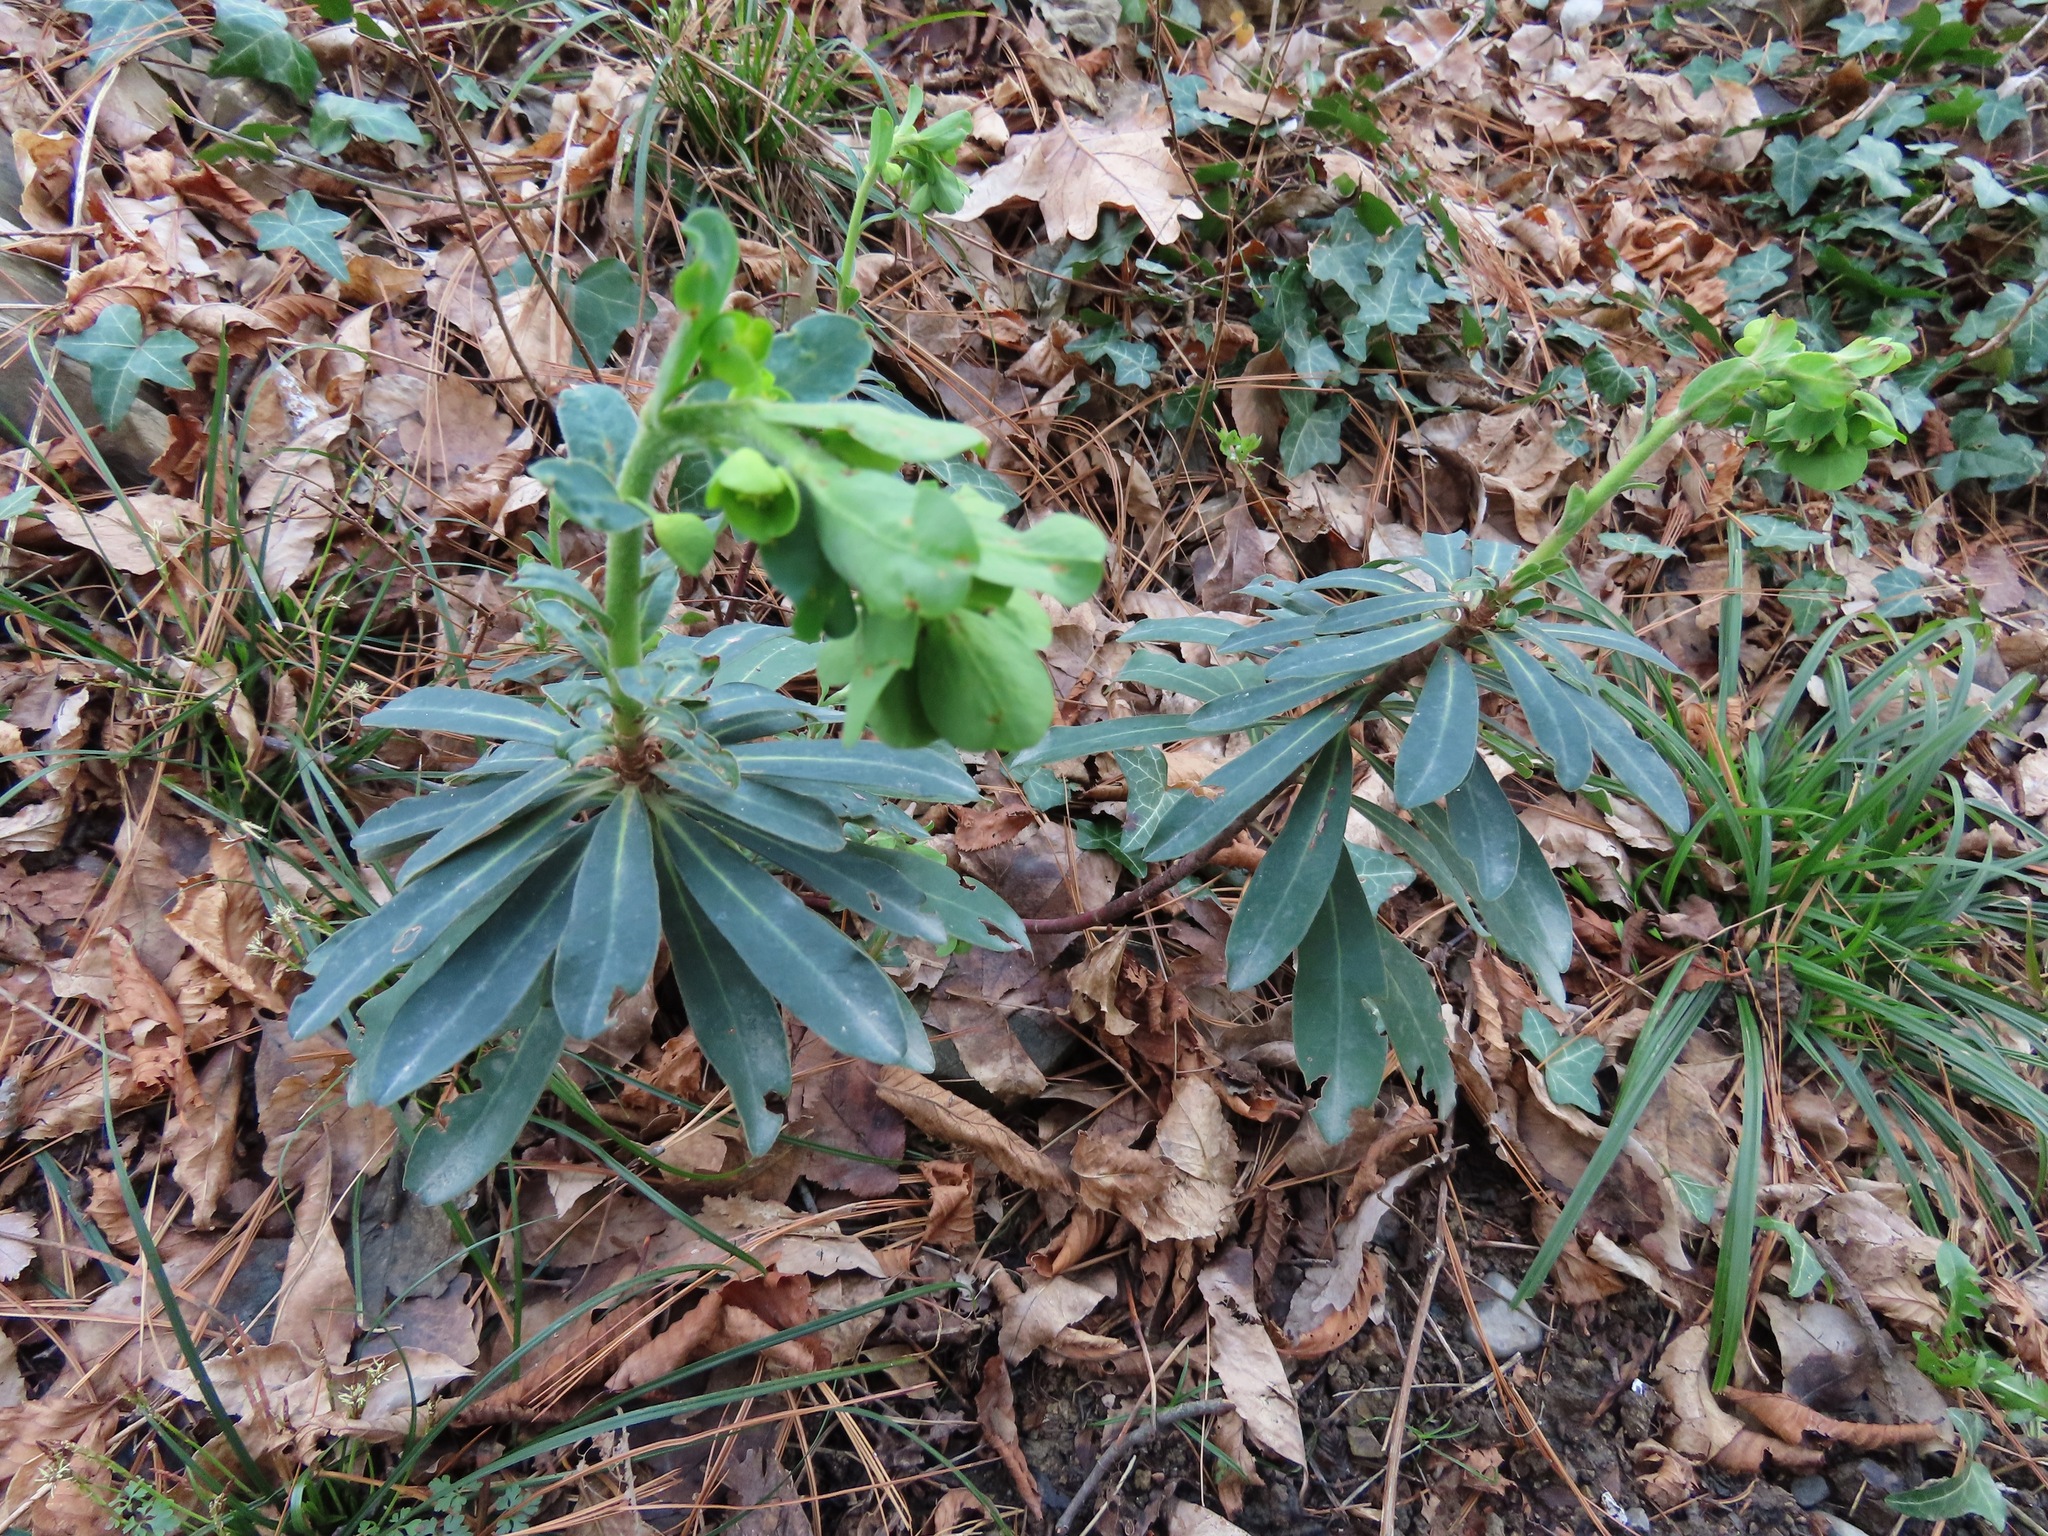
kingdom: Plantae
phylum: Tracheophyta
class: Magnoliopsida
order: Malpighiales
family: Euphorbiaceae
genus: Euphorbia
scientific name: Euphorbia amygdaloides
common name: Wood spurge
